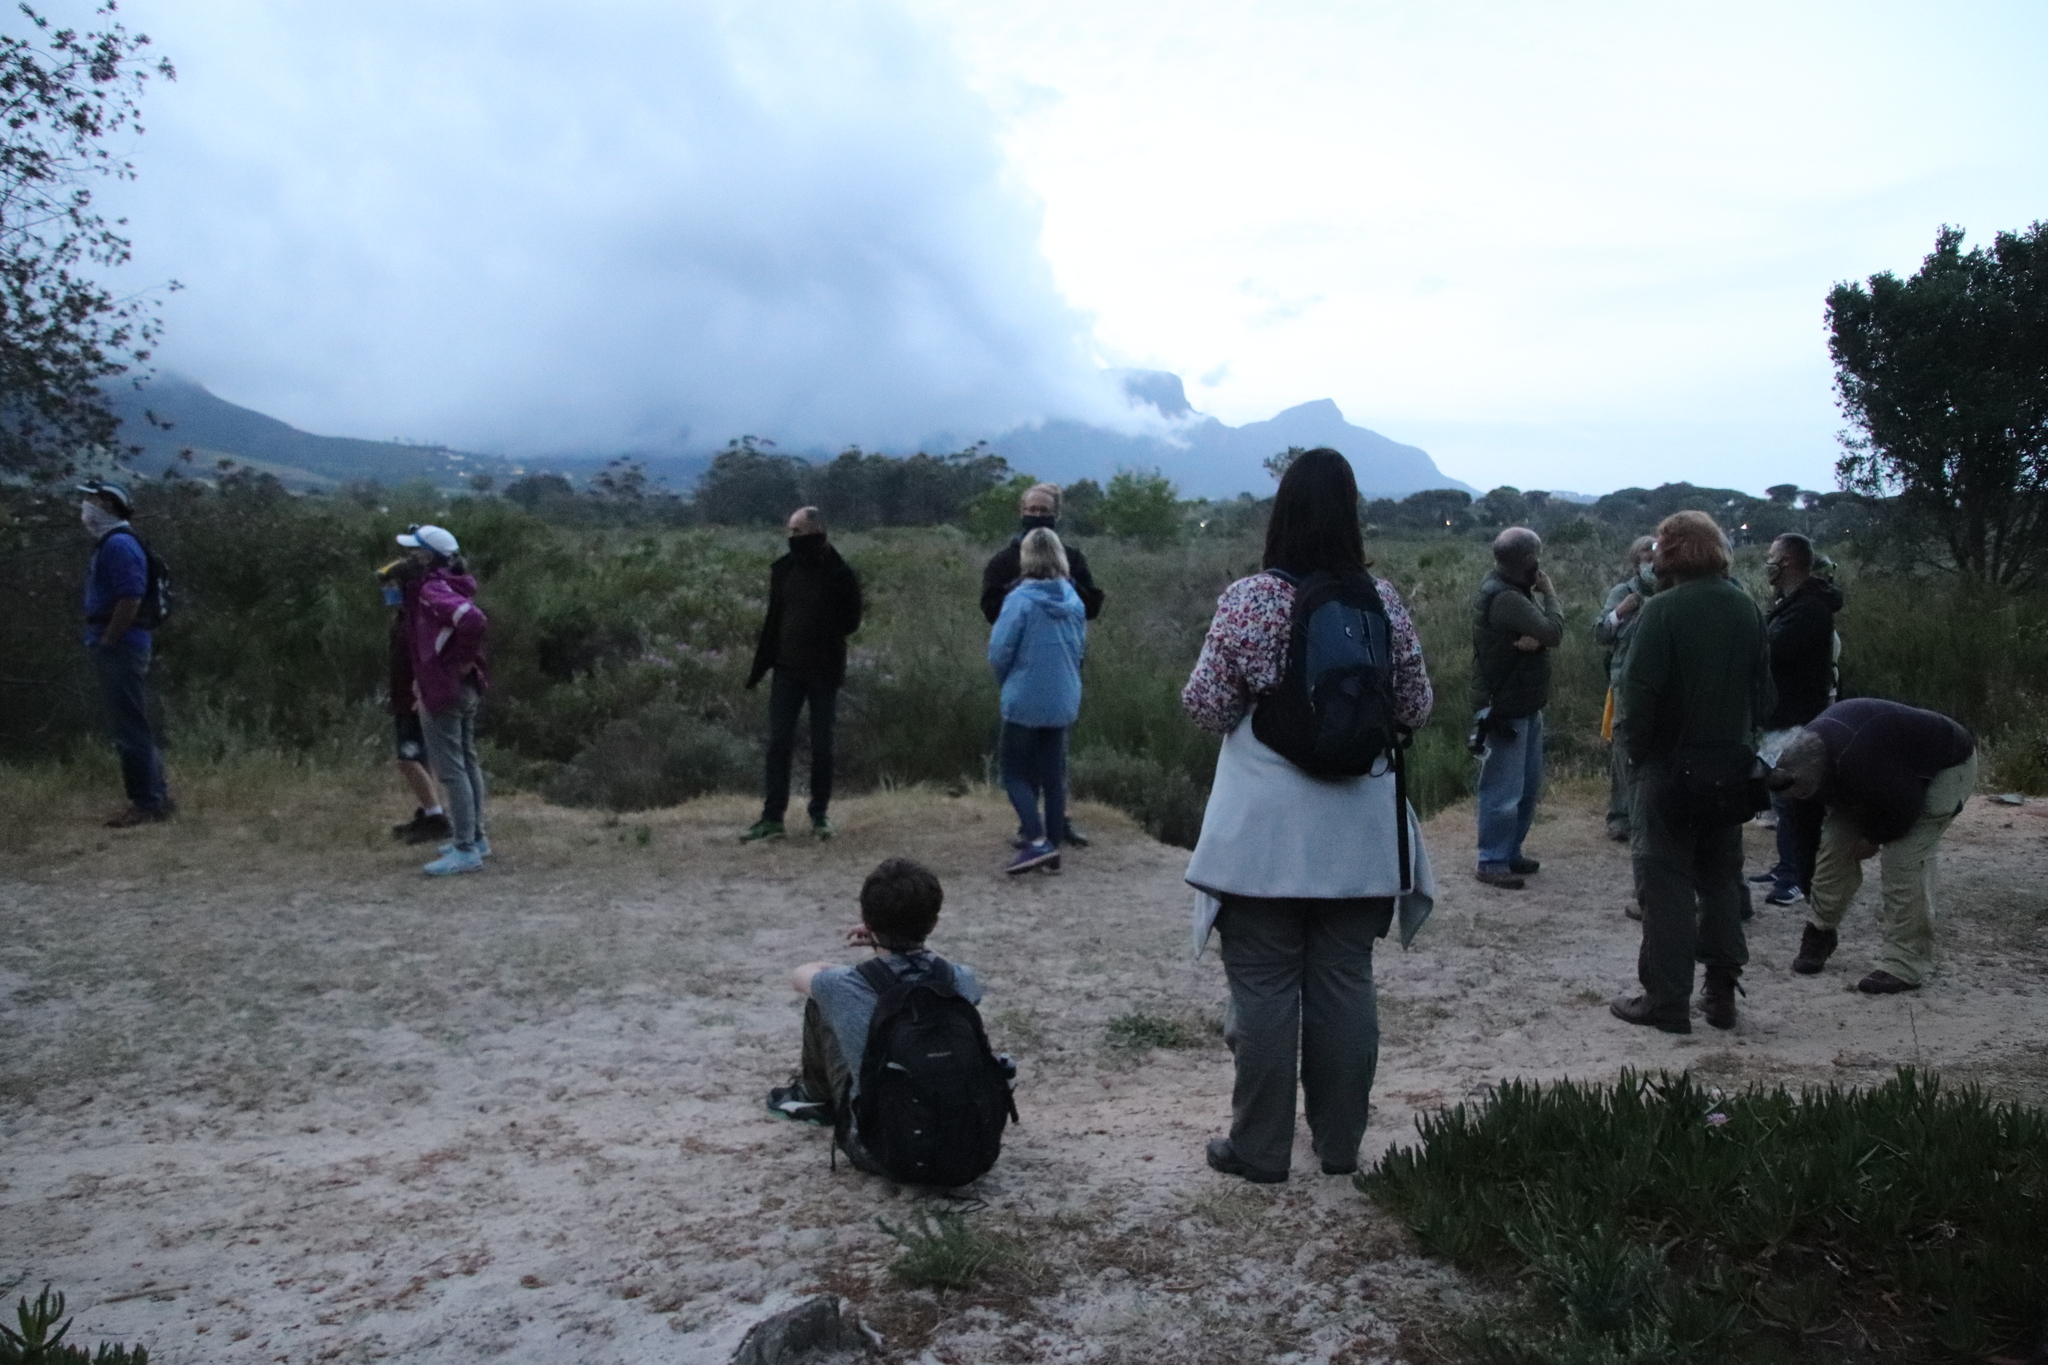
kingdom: Plantae
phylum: Tracheophyta
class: Magnoliopsida
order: Caryophyllales
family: Aizoaceae
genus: Carpobrotus
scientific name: Carpobrotus edulis
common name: Hottentot-fig
